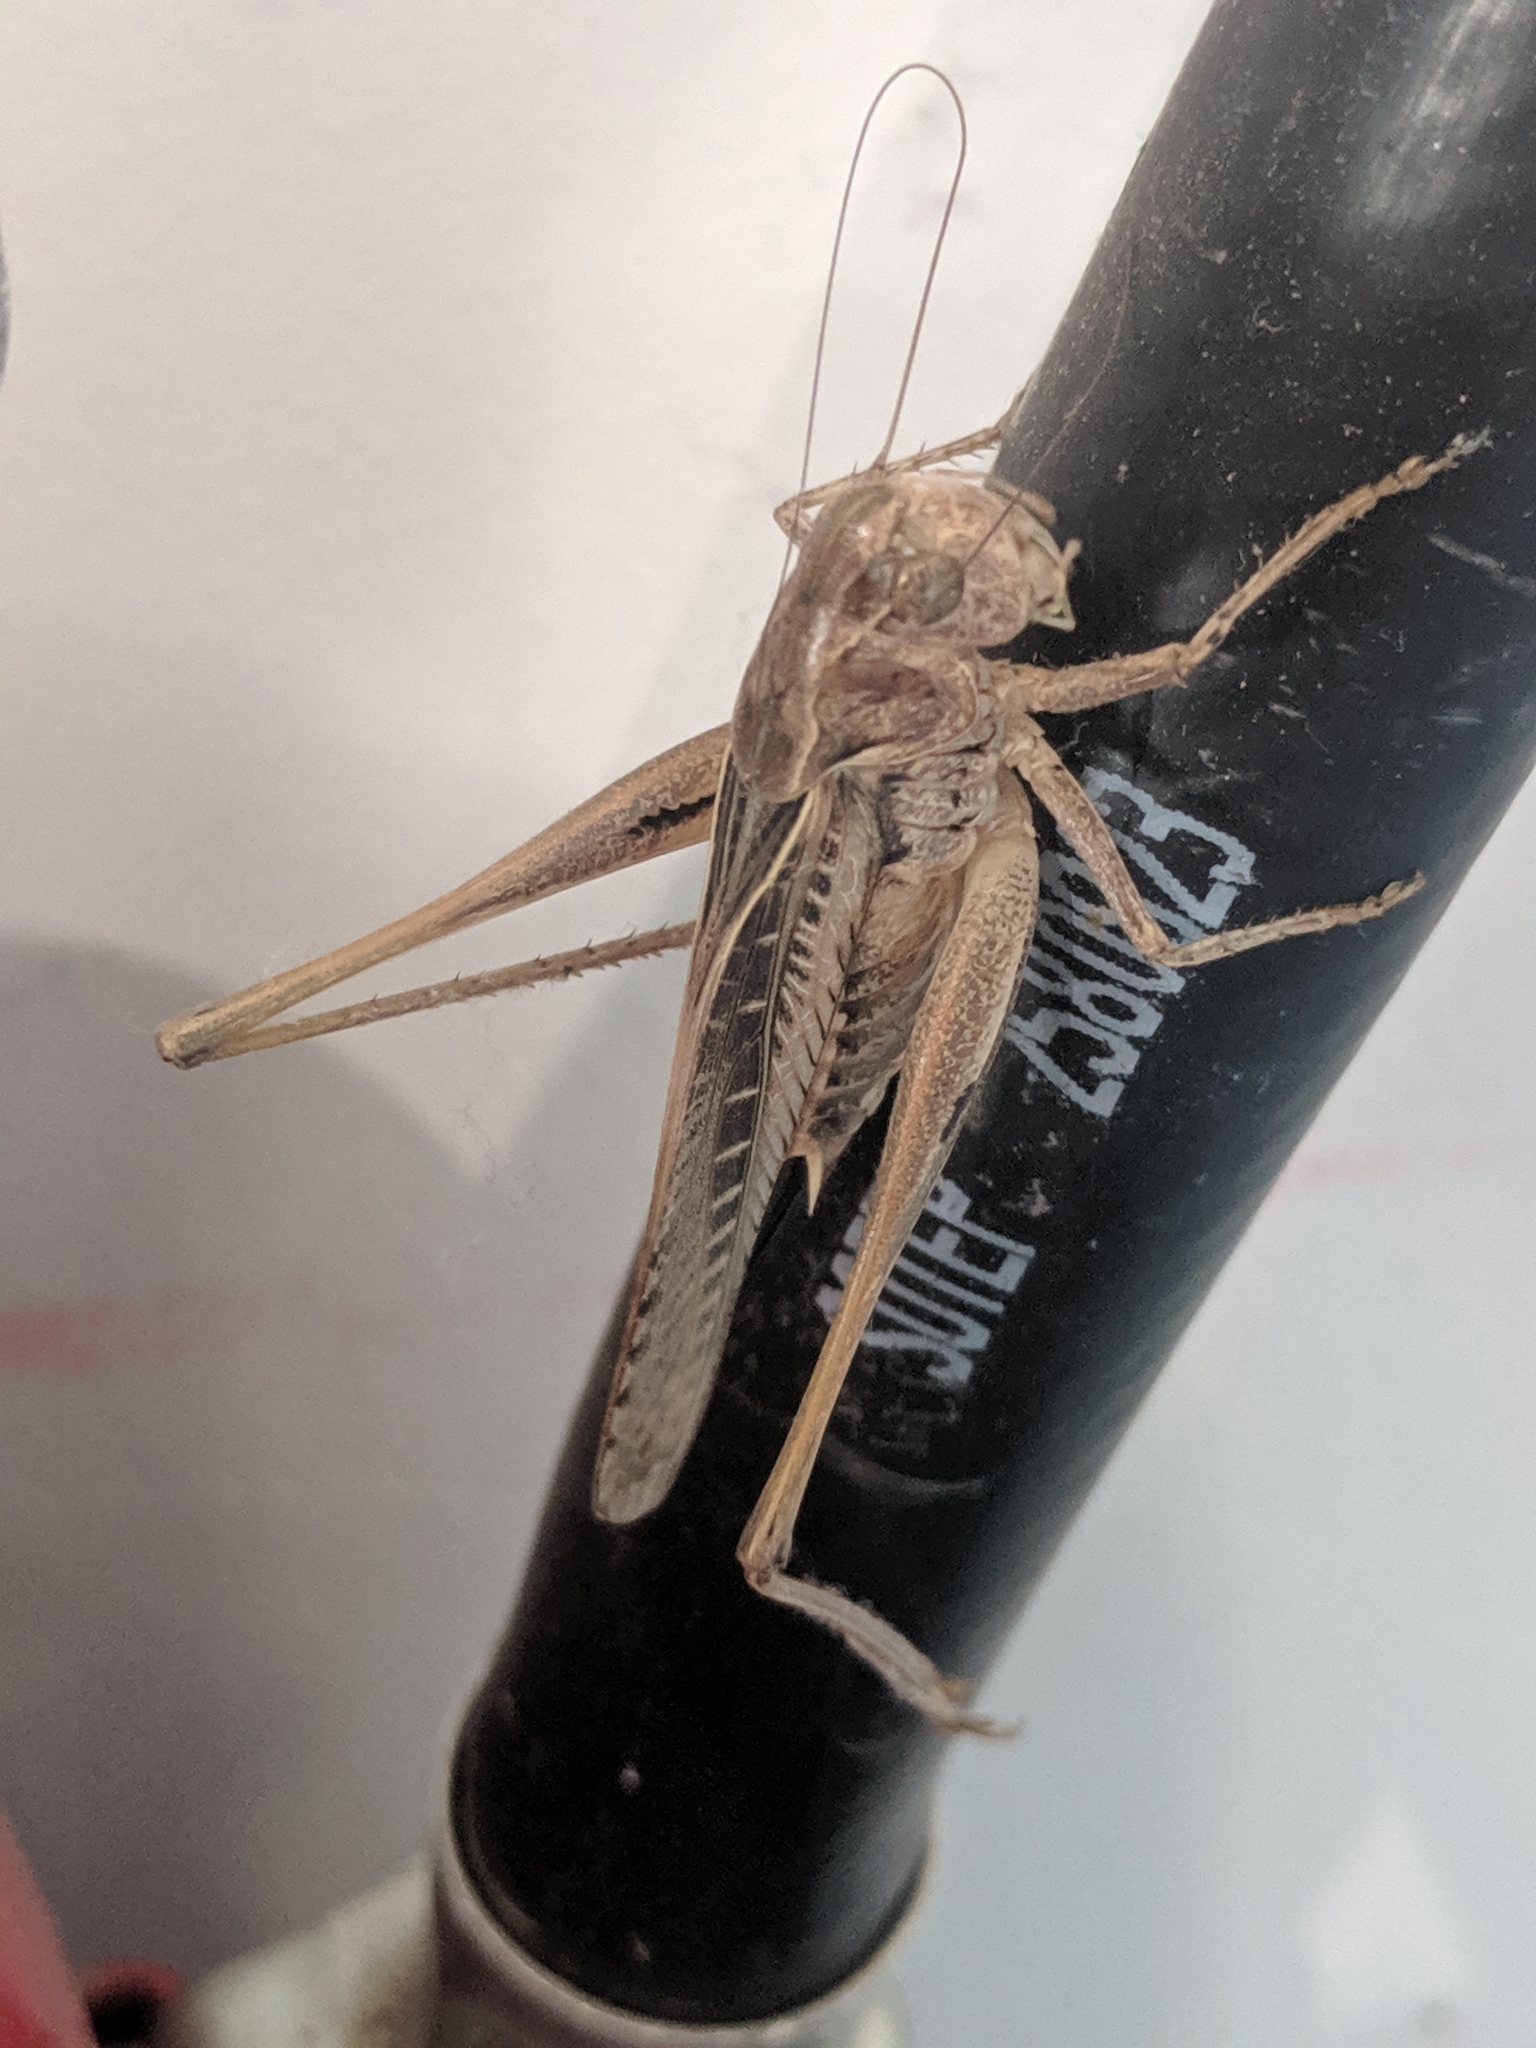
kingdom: Animalia
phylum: Arthropoda
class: Insecta
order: Orthoptera
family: Tettigoniidae
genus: Platycleis
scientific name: Platycleis affinis
